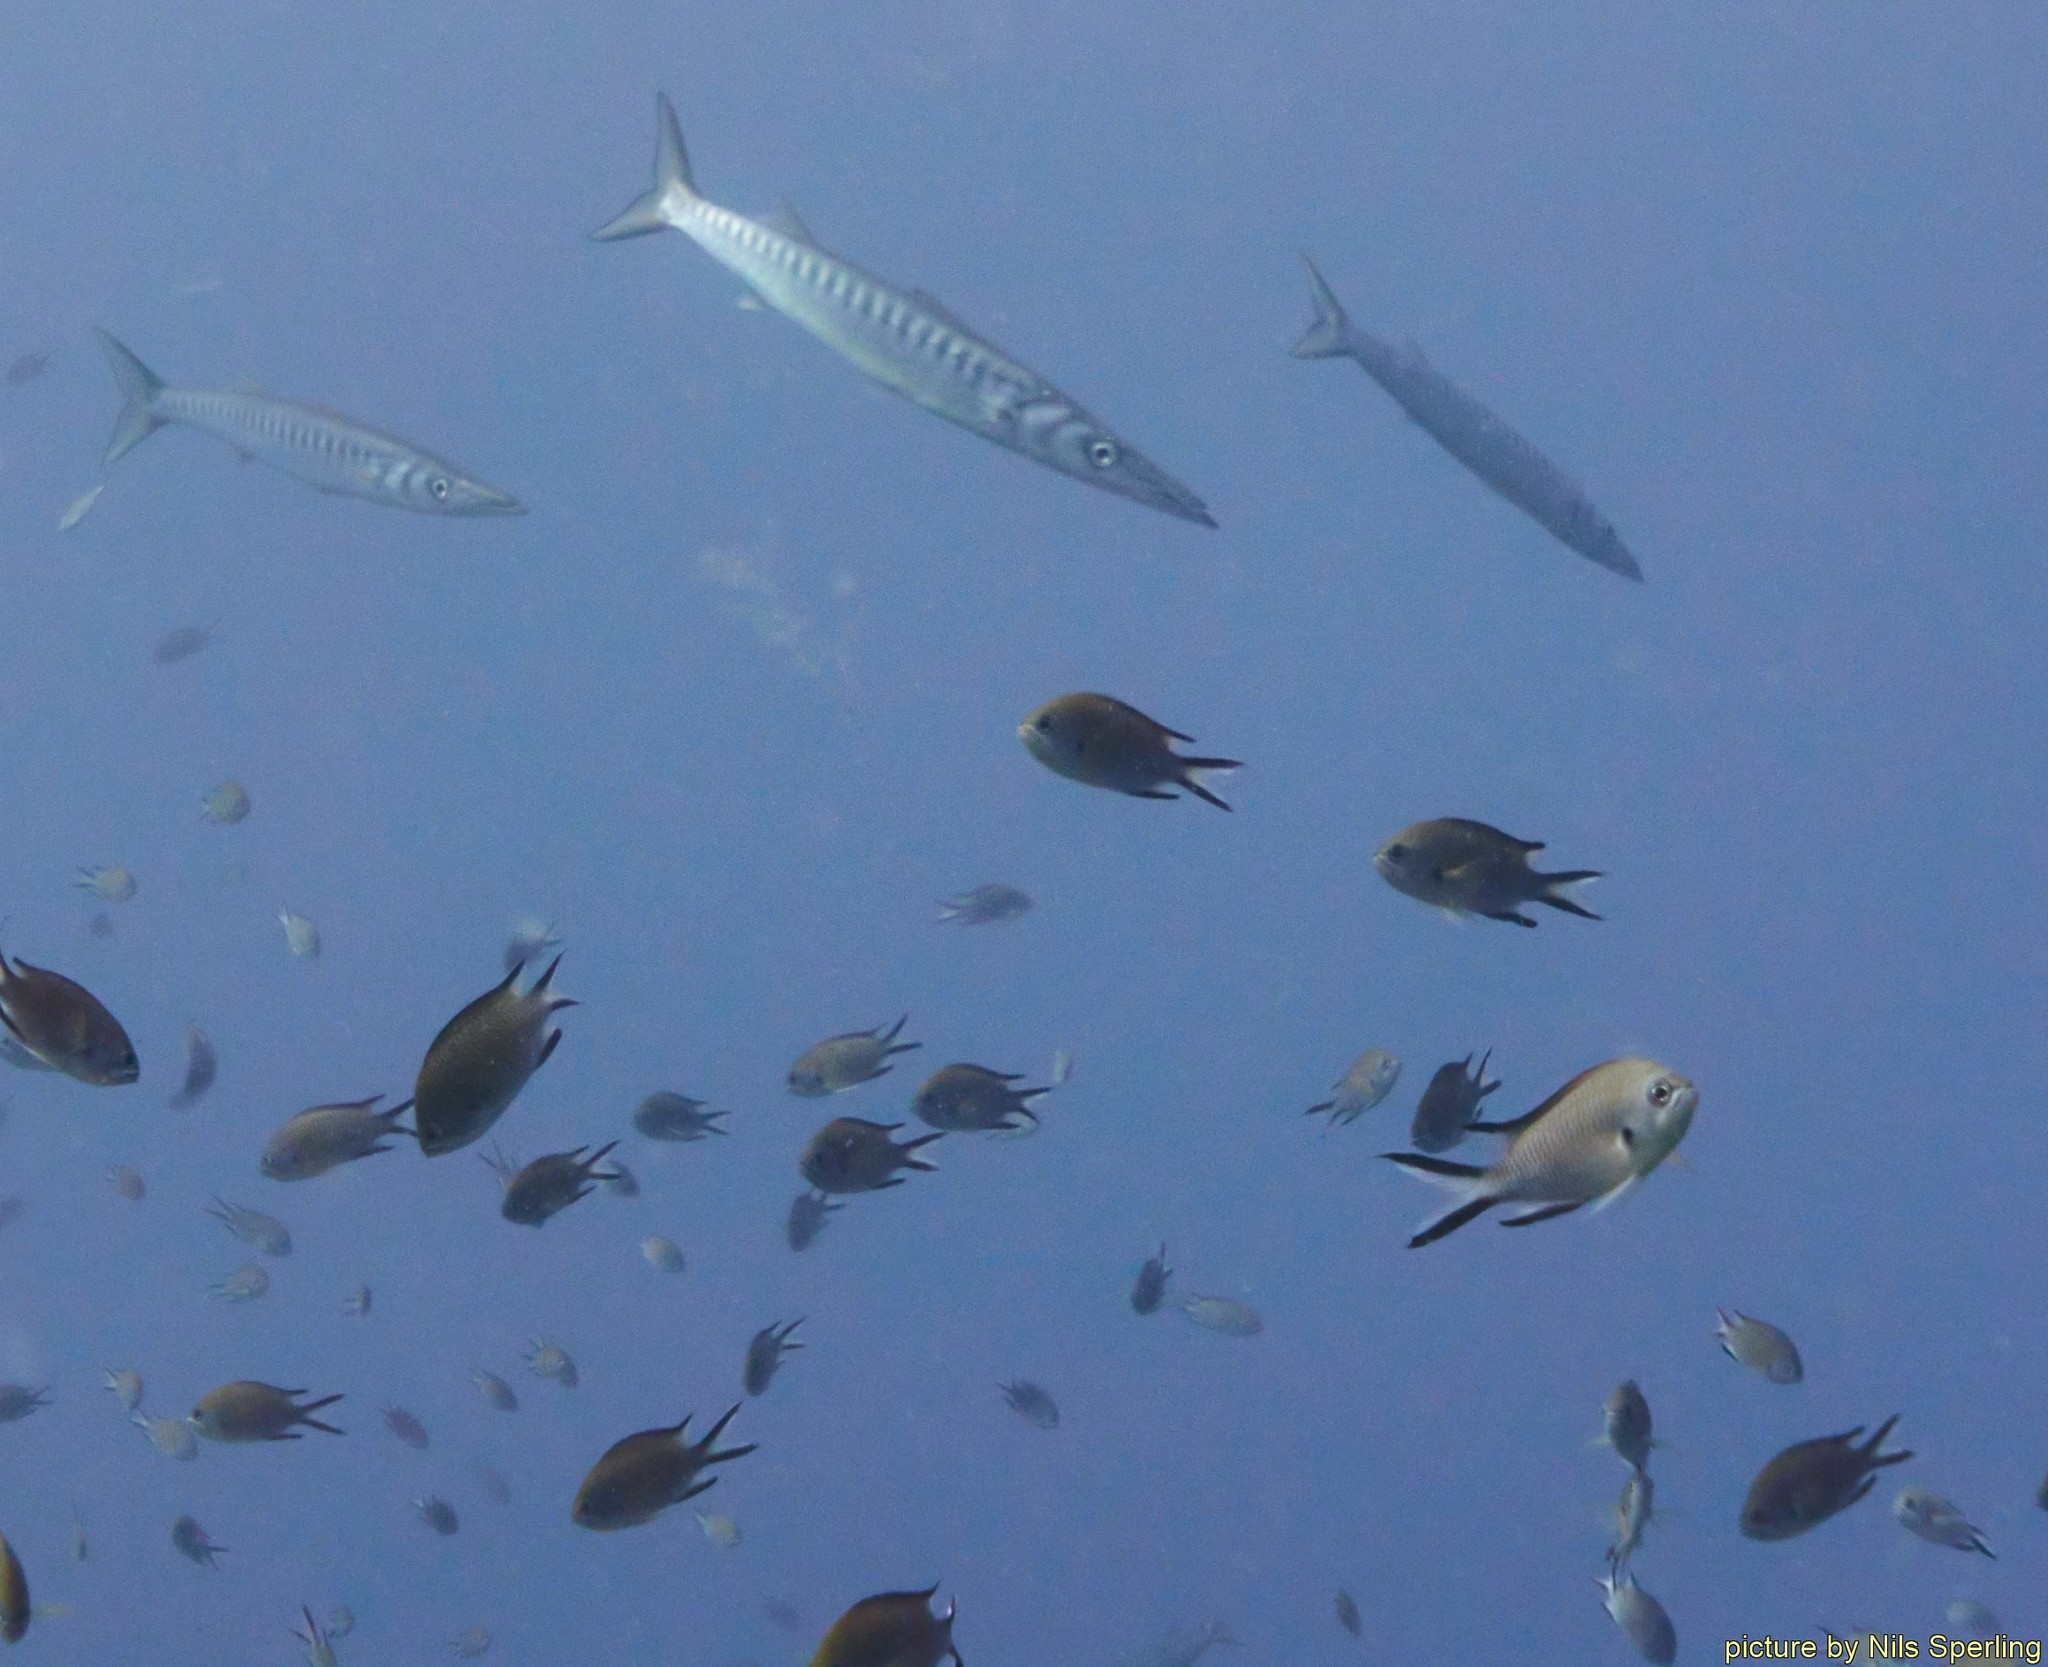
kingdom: Animalia
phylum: Chordata
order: Perciformes
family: Sphyraenidae
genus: Sphyraena
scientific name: Sphyraena viridensis
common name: Yellowmouth barracuda
